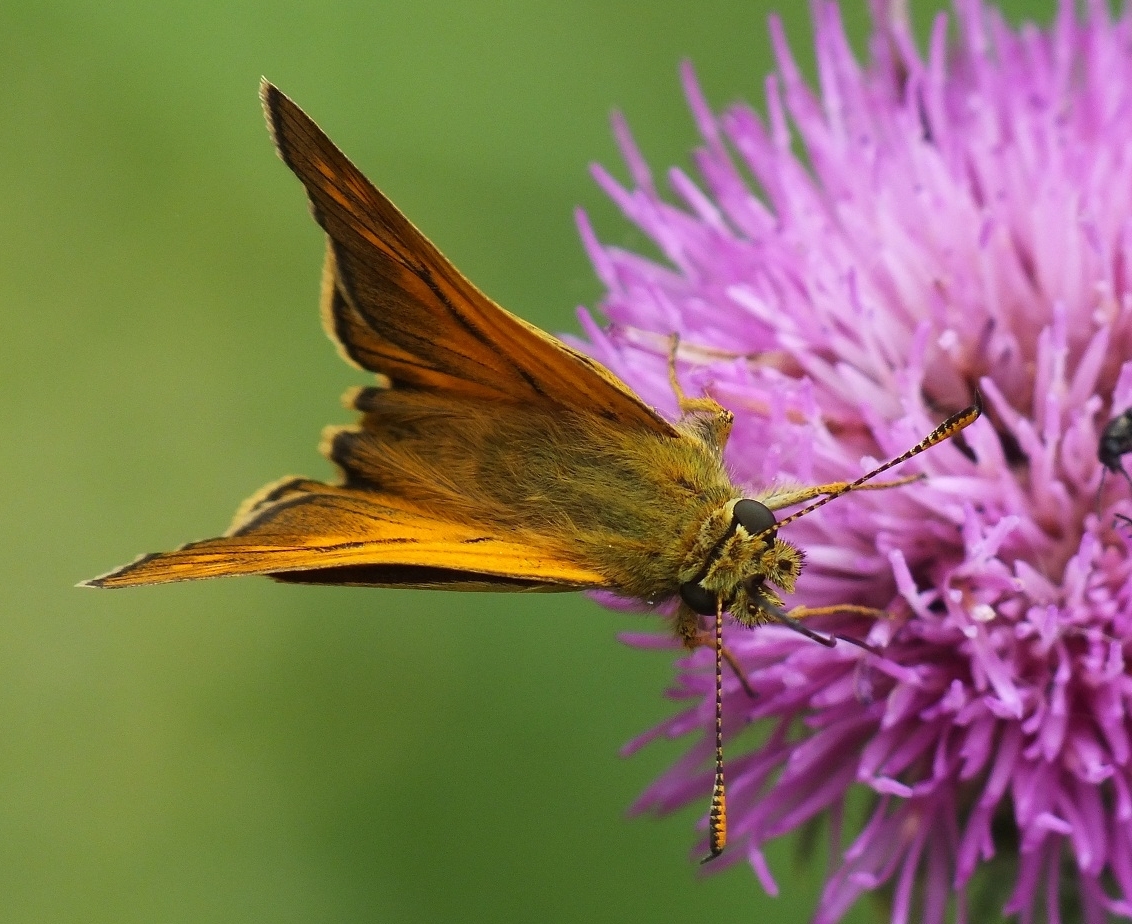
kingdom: Animalia
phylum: Arthropoda
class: Insecta
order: Lepidoptera
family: Hesperiidae
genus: Ochlodes
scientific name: Ochlodes venata
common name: Large skipper
